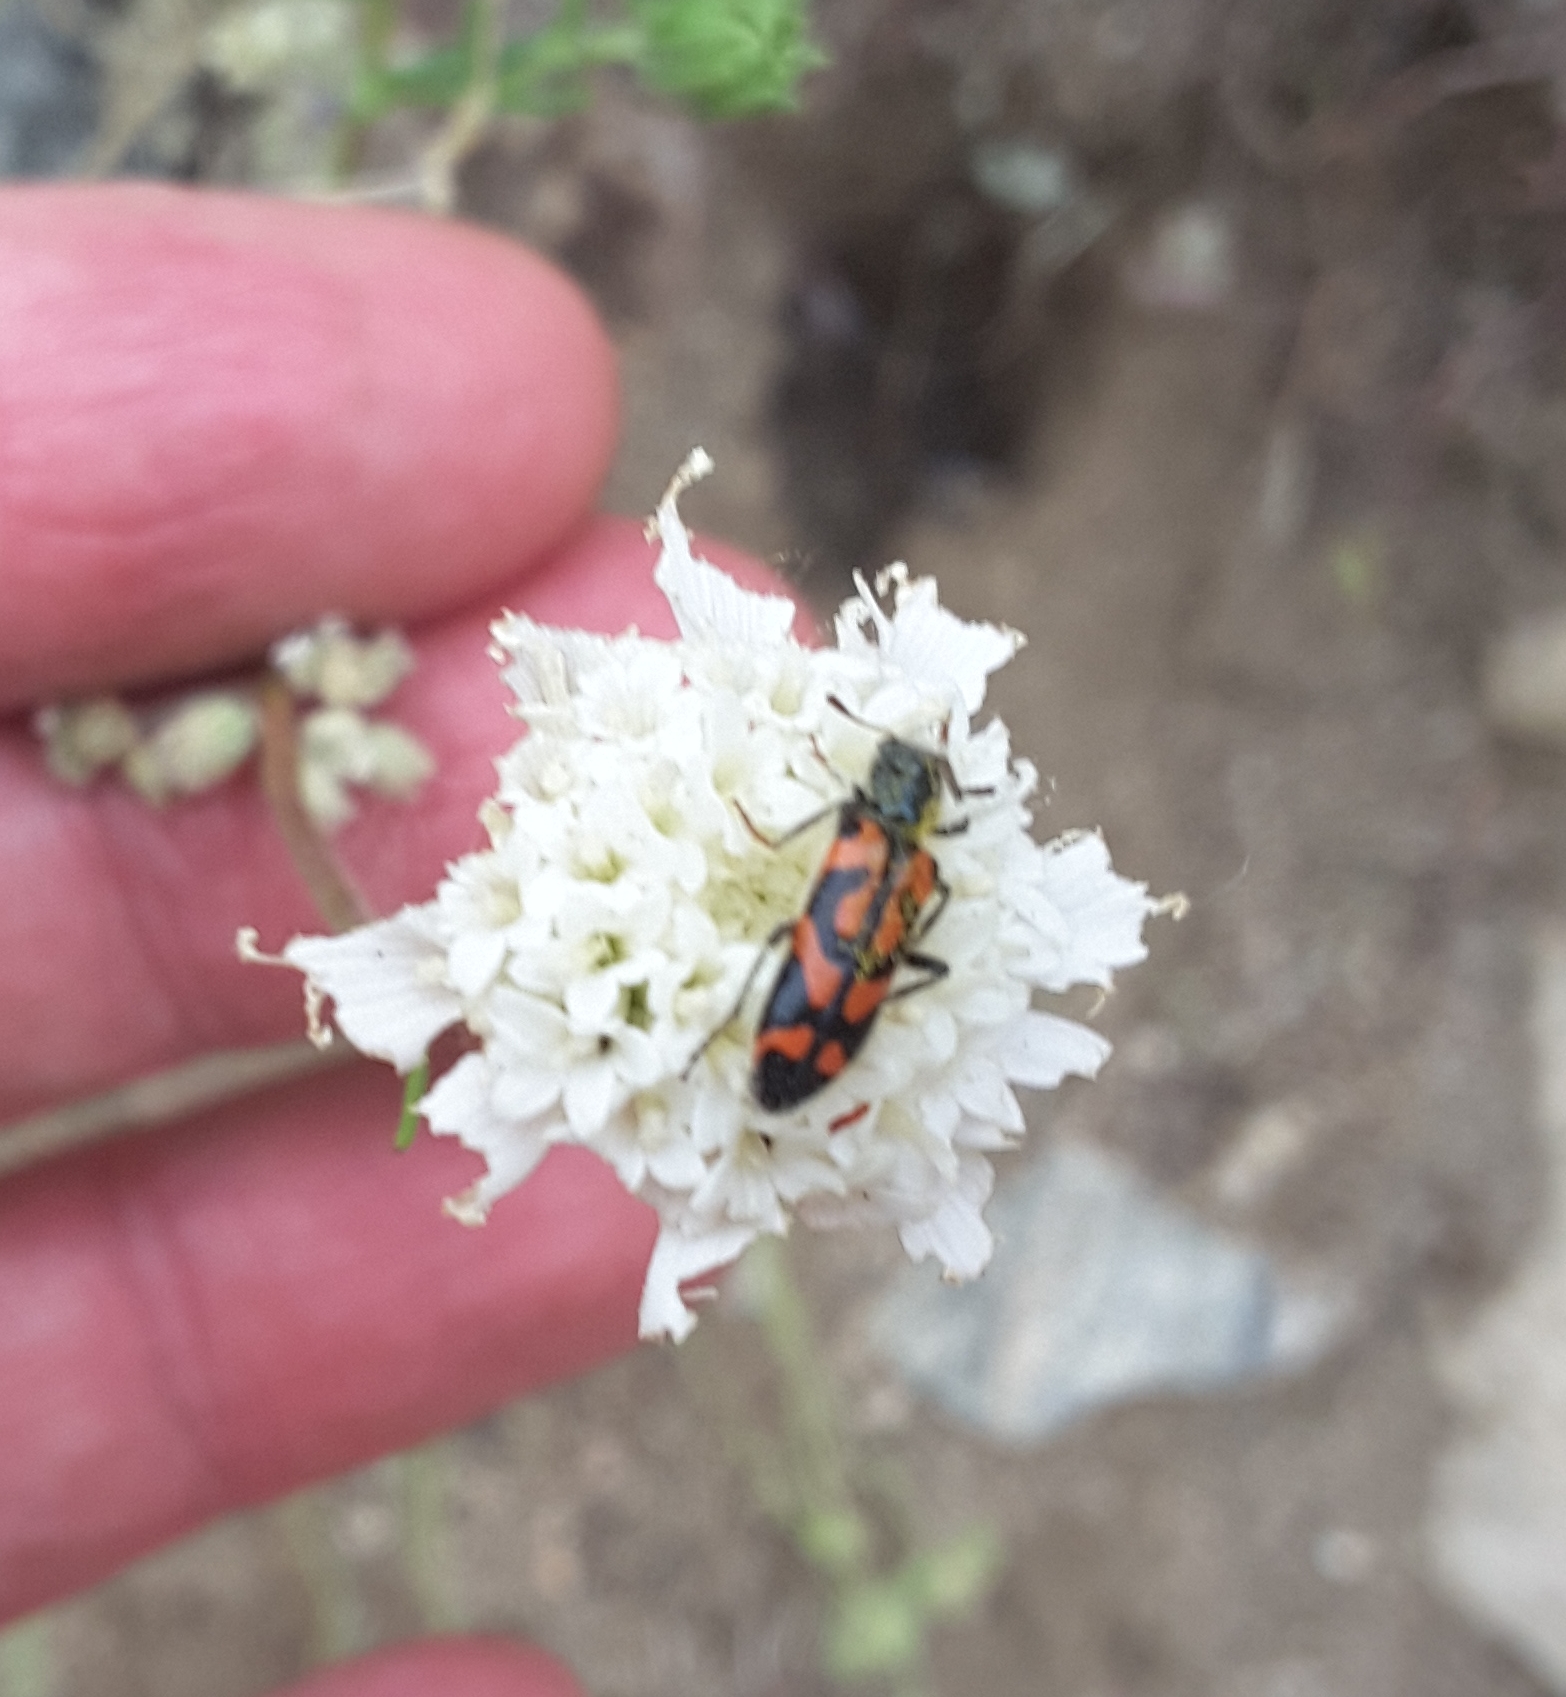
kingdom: Animalia
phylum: Arthropoda
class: Insecta
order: Coleoptera
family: Cleridae
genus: Trichodes
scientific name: Trichodes ornatus
